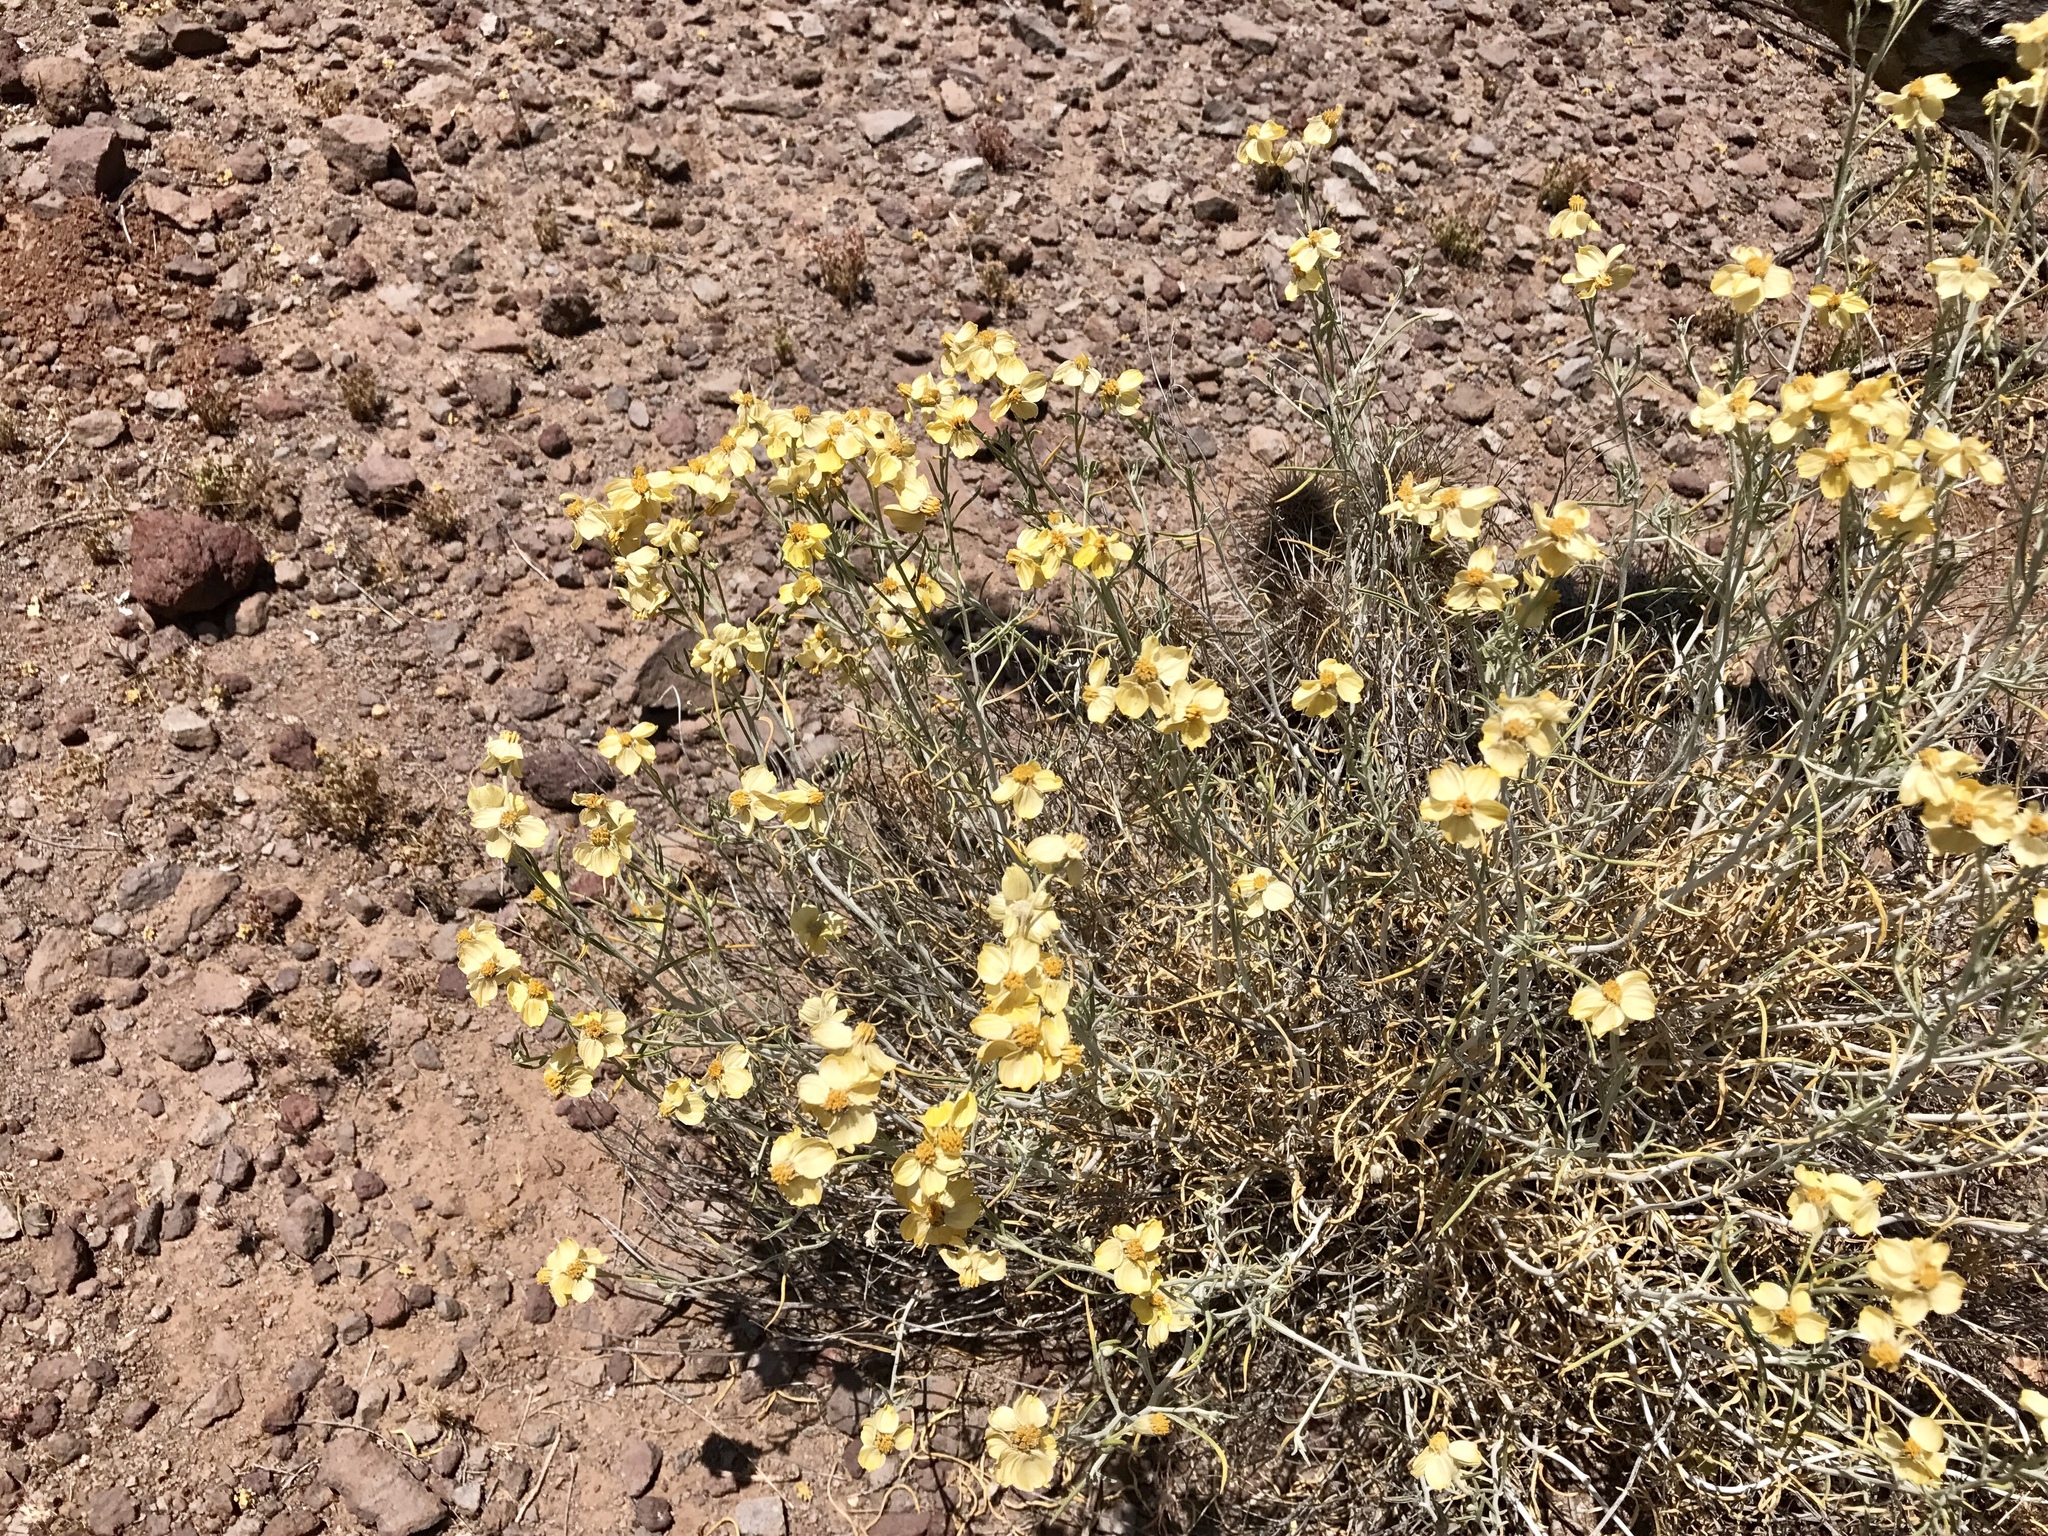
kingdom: Plantae
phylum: Tracheophyta
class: Magnoliopsida
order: Asterales
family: Asteraceae
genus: Psilostrophe
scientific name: Psilostrophe cooperi
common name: White-stem paper-flower
